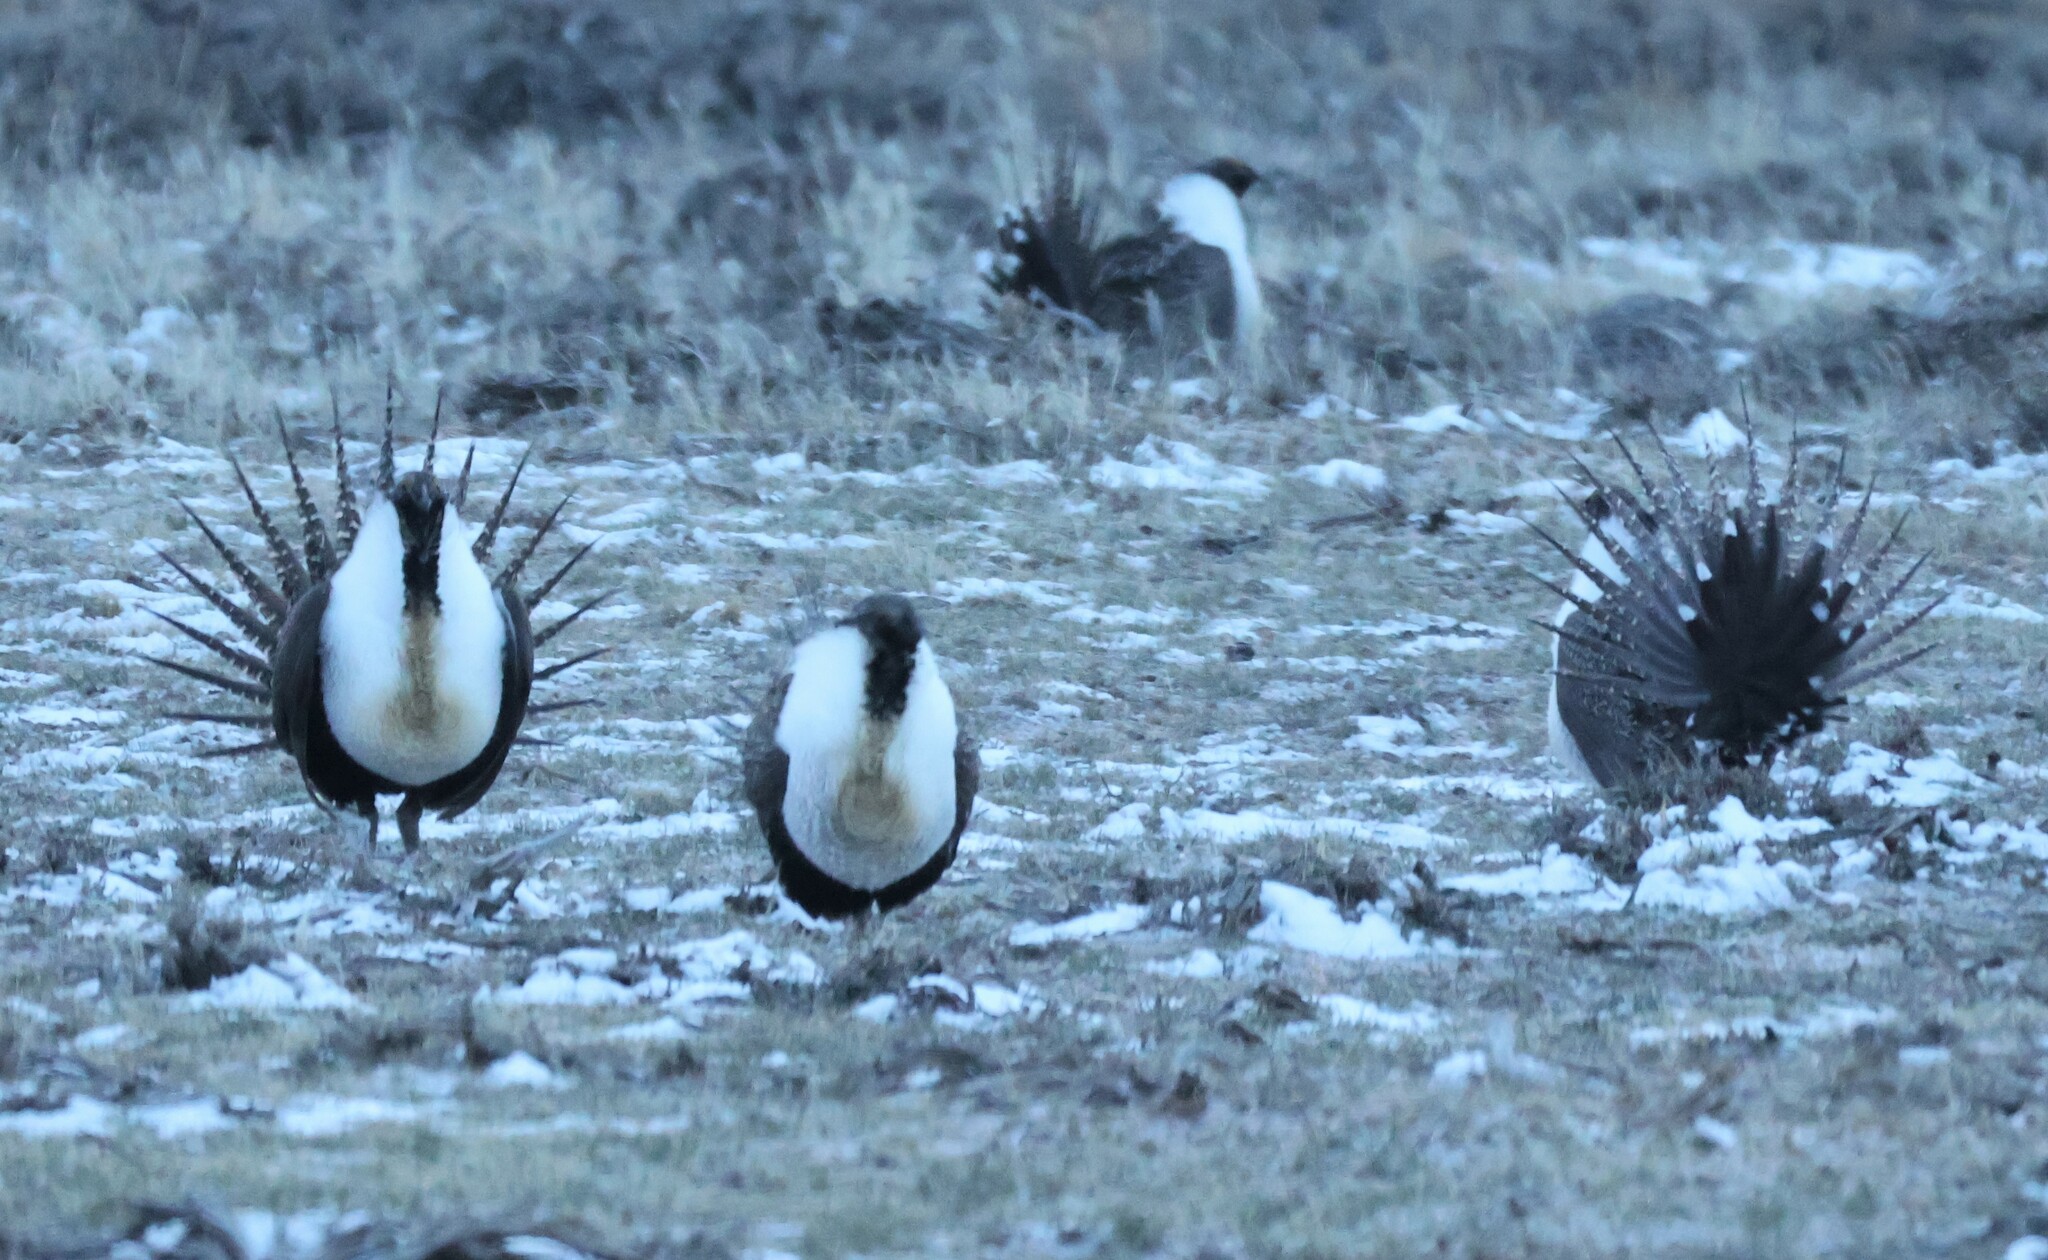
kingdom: Animalia
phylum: Chordata
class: Aves
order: Galliformes
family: Phasianidae
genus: Centrocercus
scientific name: Centrocercus urophasianus
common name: Sage grouse
